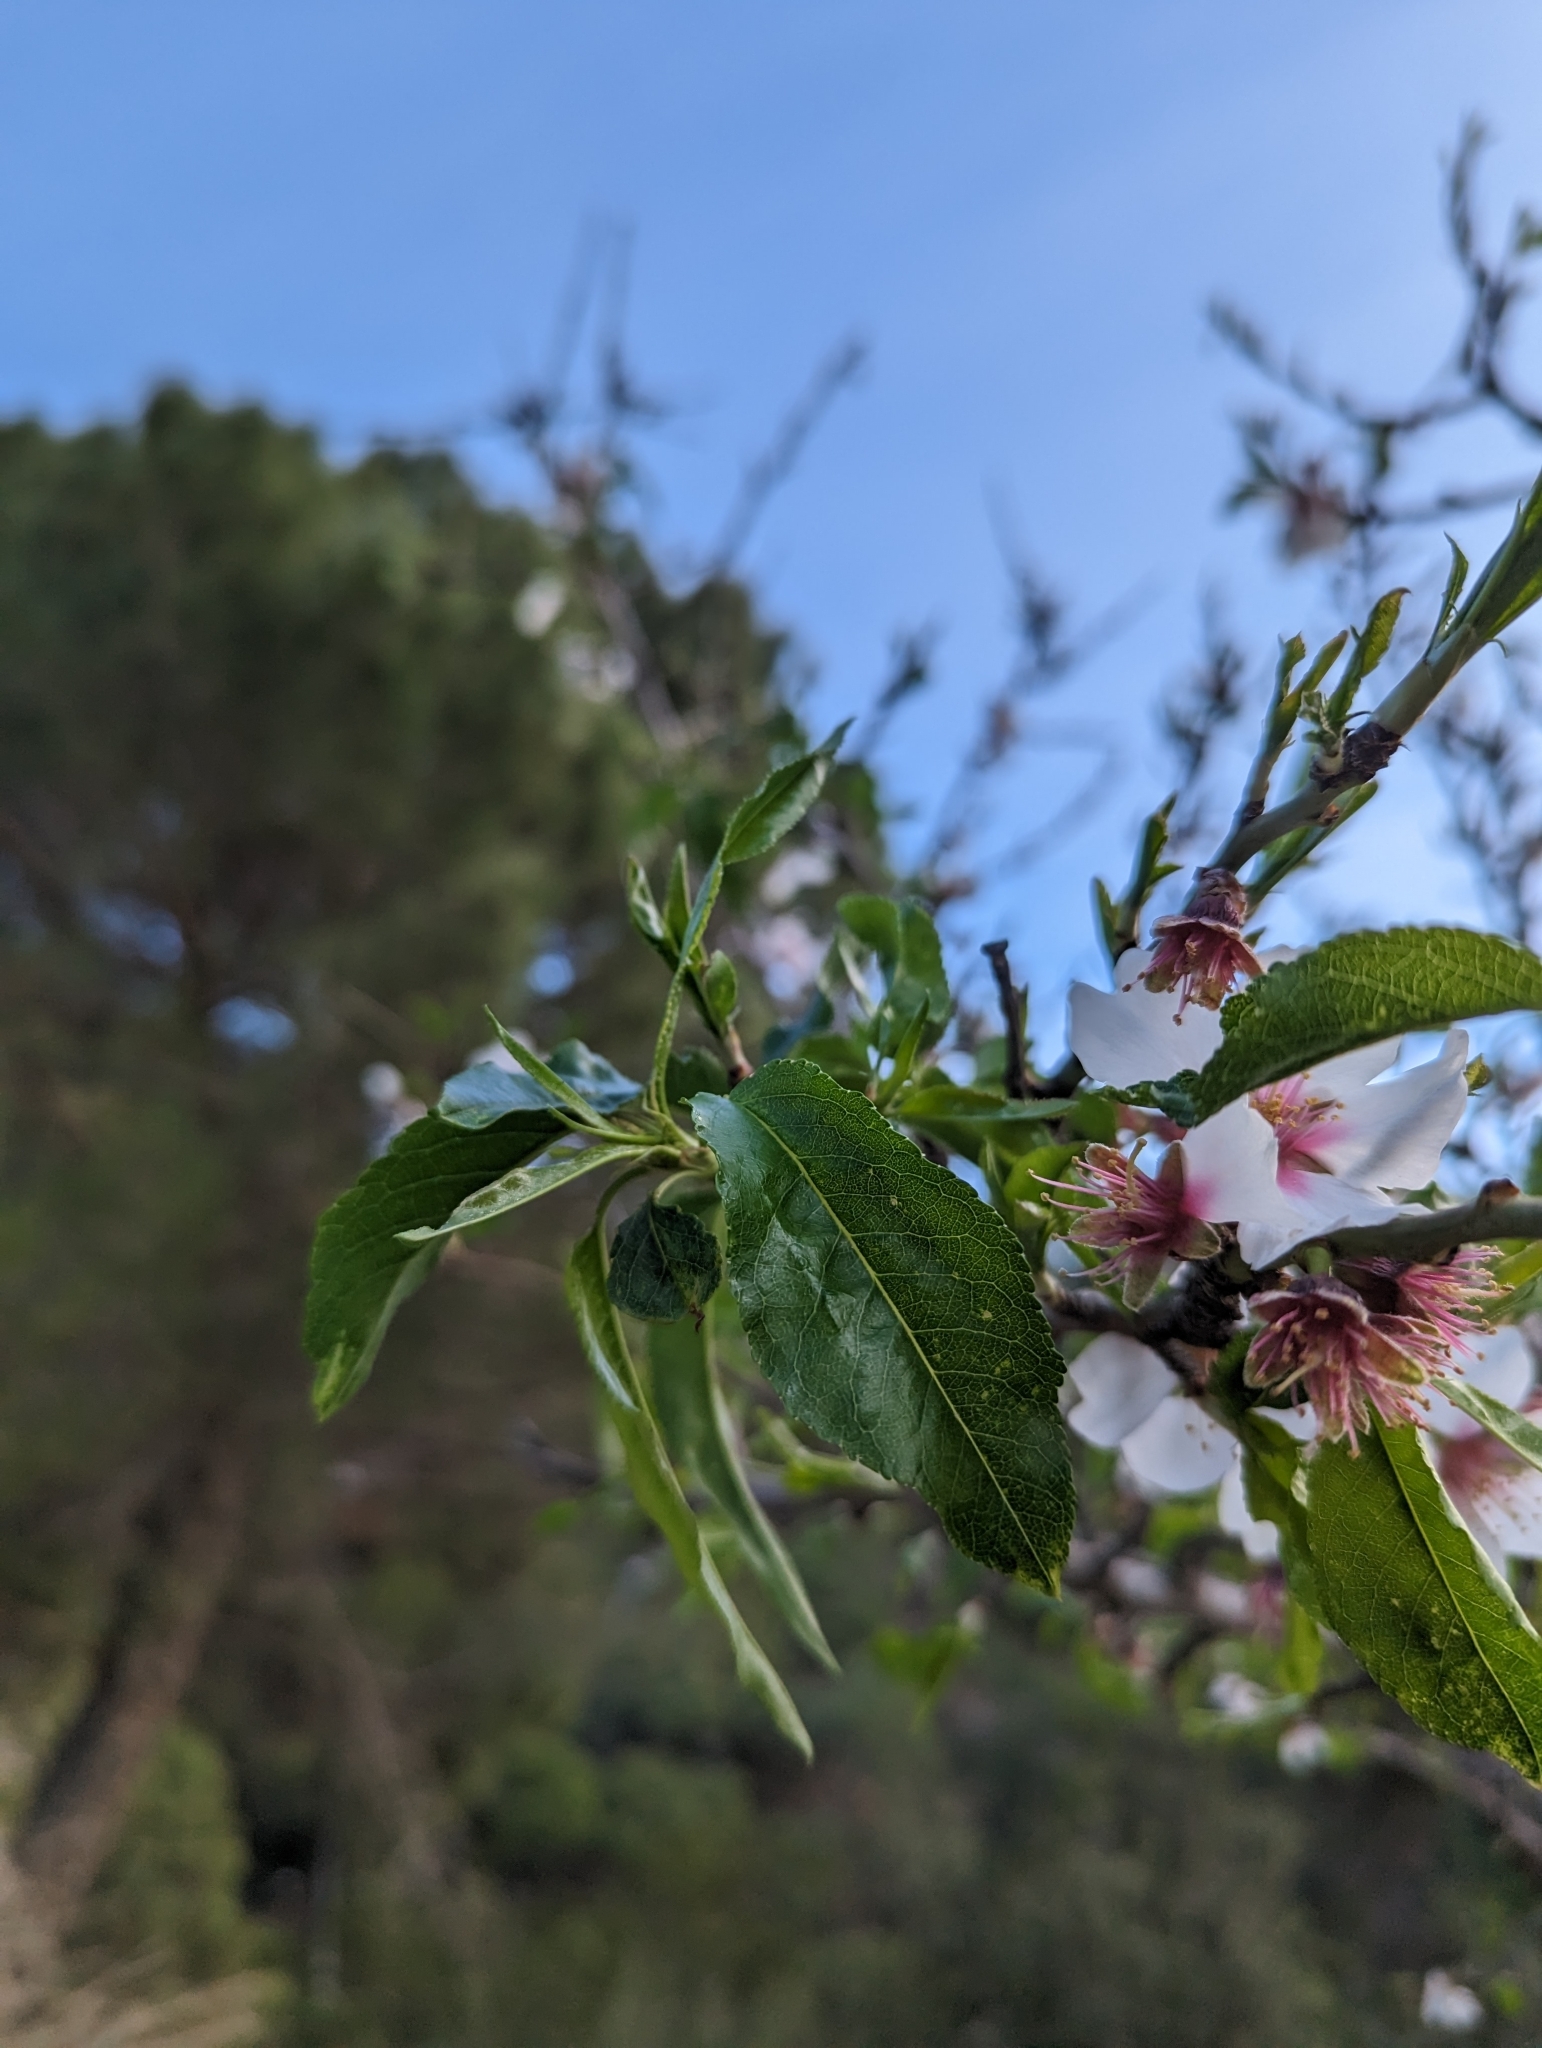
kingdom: Plantae
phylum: Tracheophyta
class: Magnoliopsida
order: Rosales
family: Rosaceae
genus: Prunus
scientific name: Prunus amygdalus
